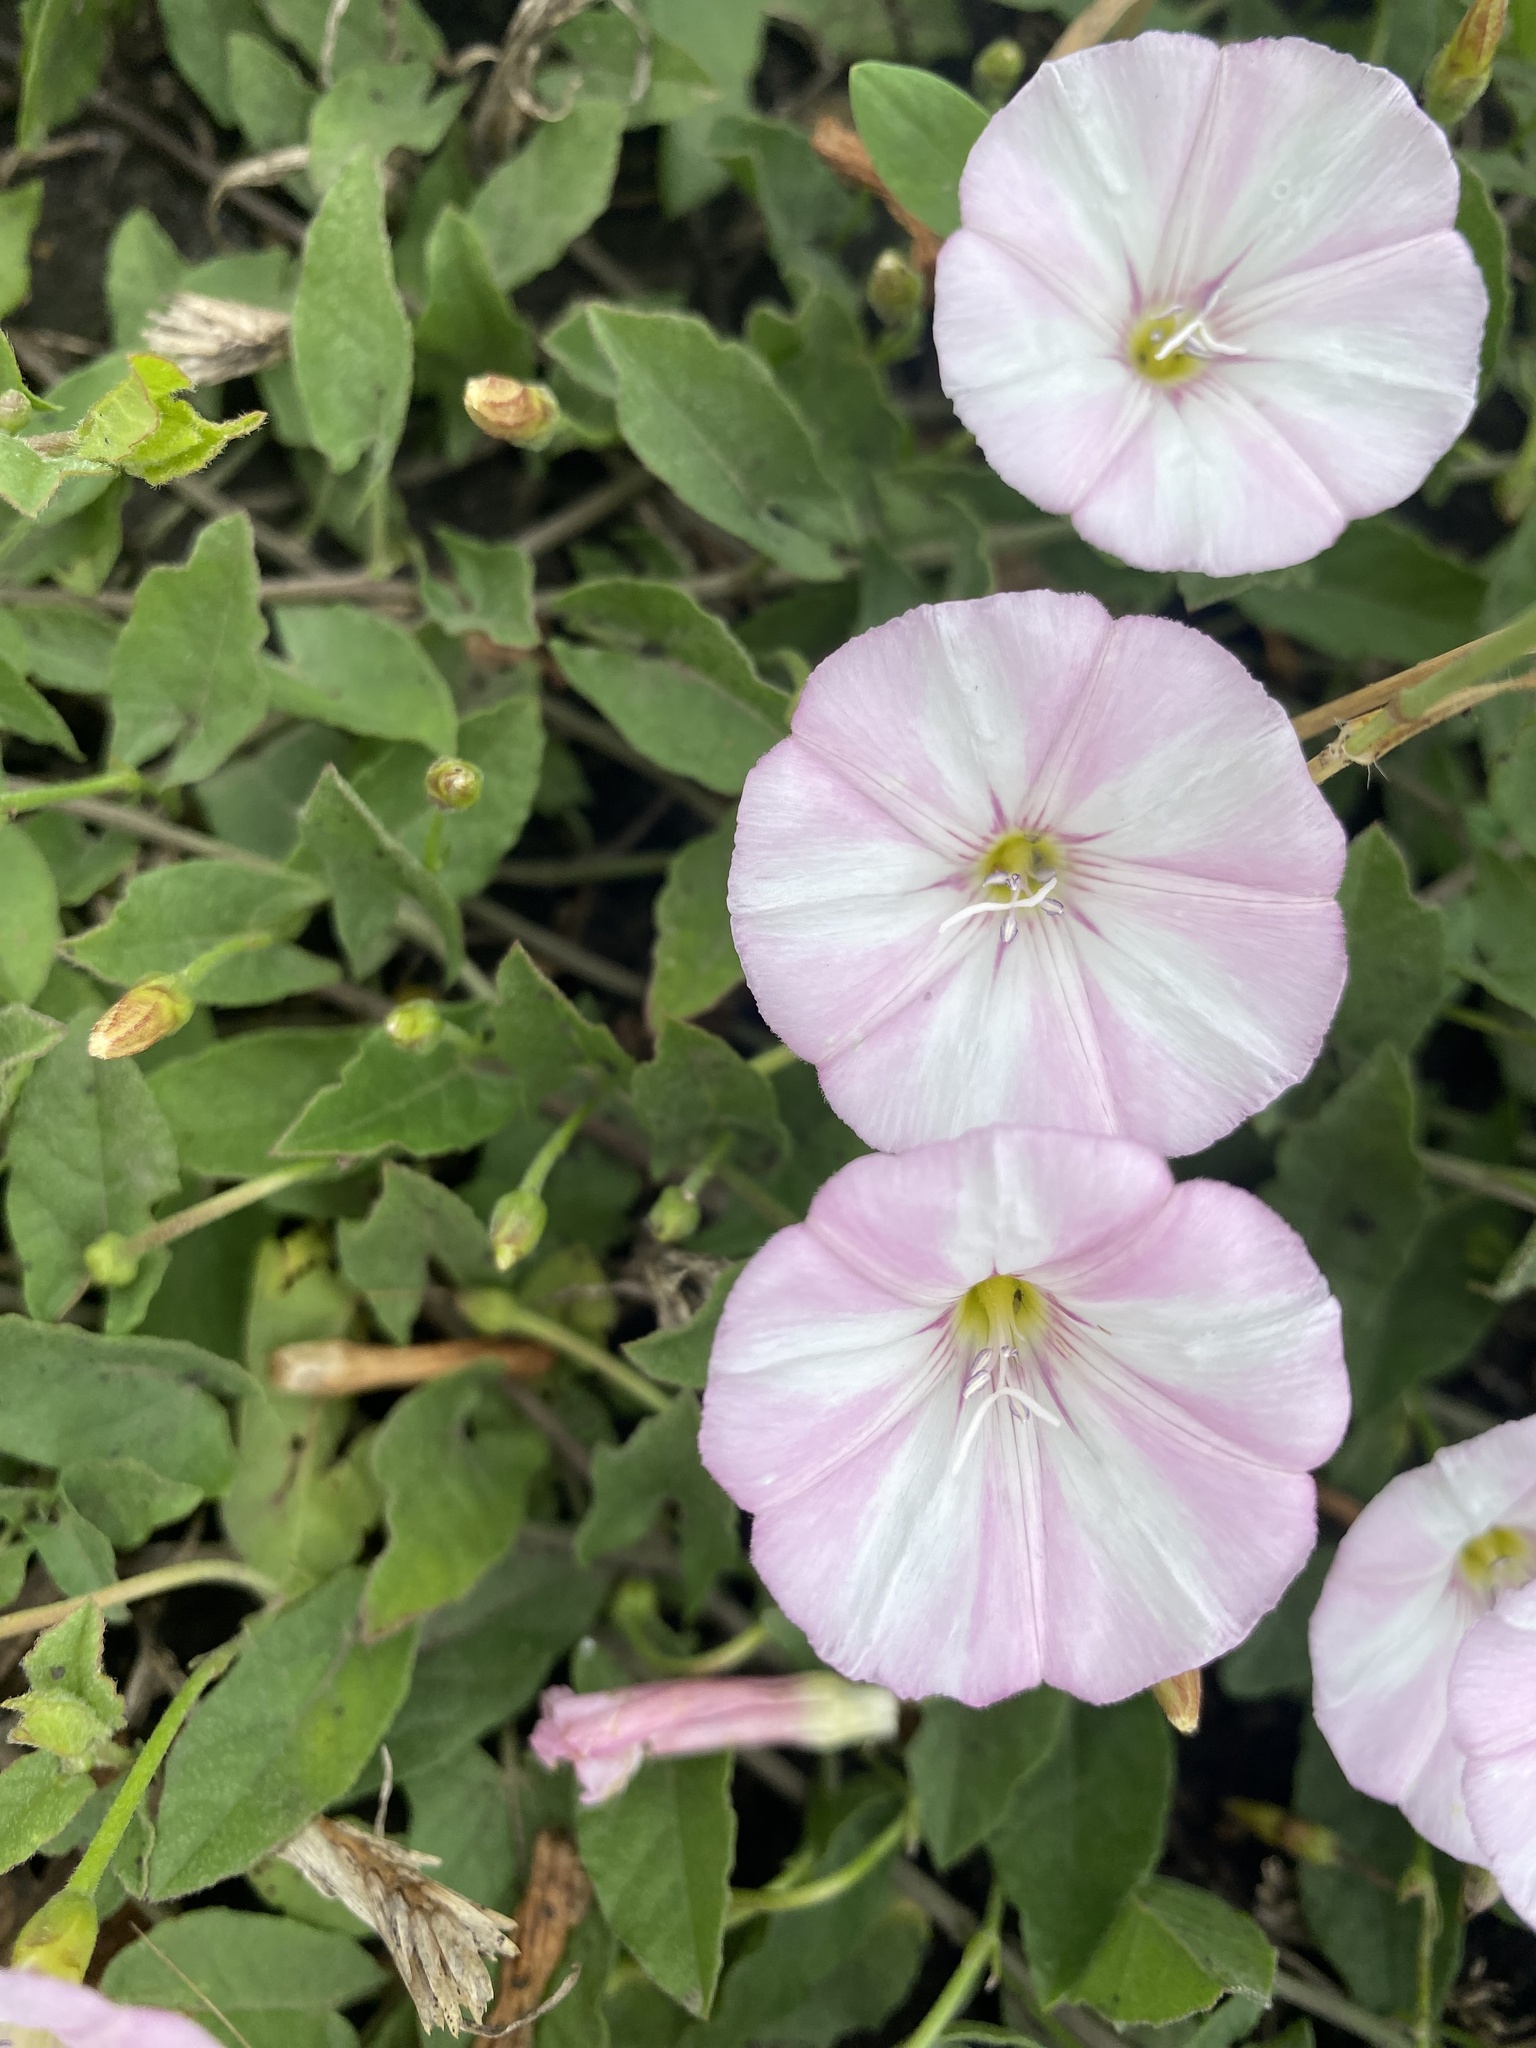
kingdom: Plantae
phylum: Tracheophyta
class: Magnoliopsida
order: Solanales
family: Convolvulaceae
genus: Convolvulus
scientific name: Convolvulus arvensis
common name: Field bindweed
